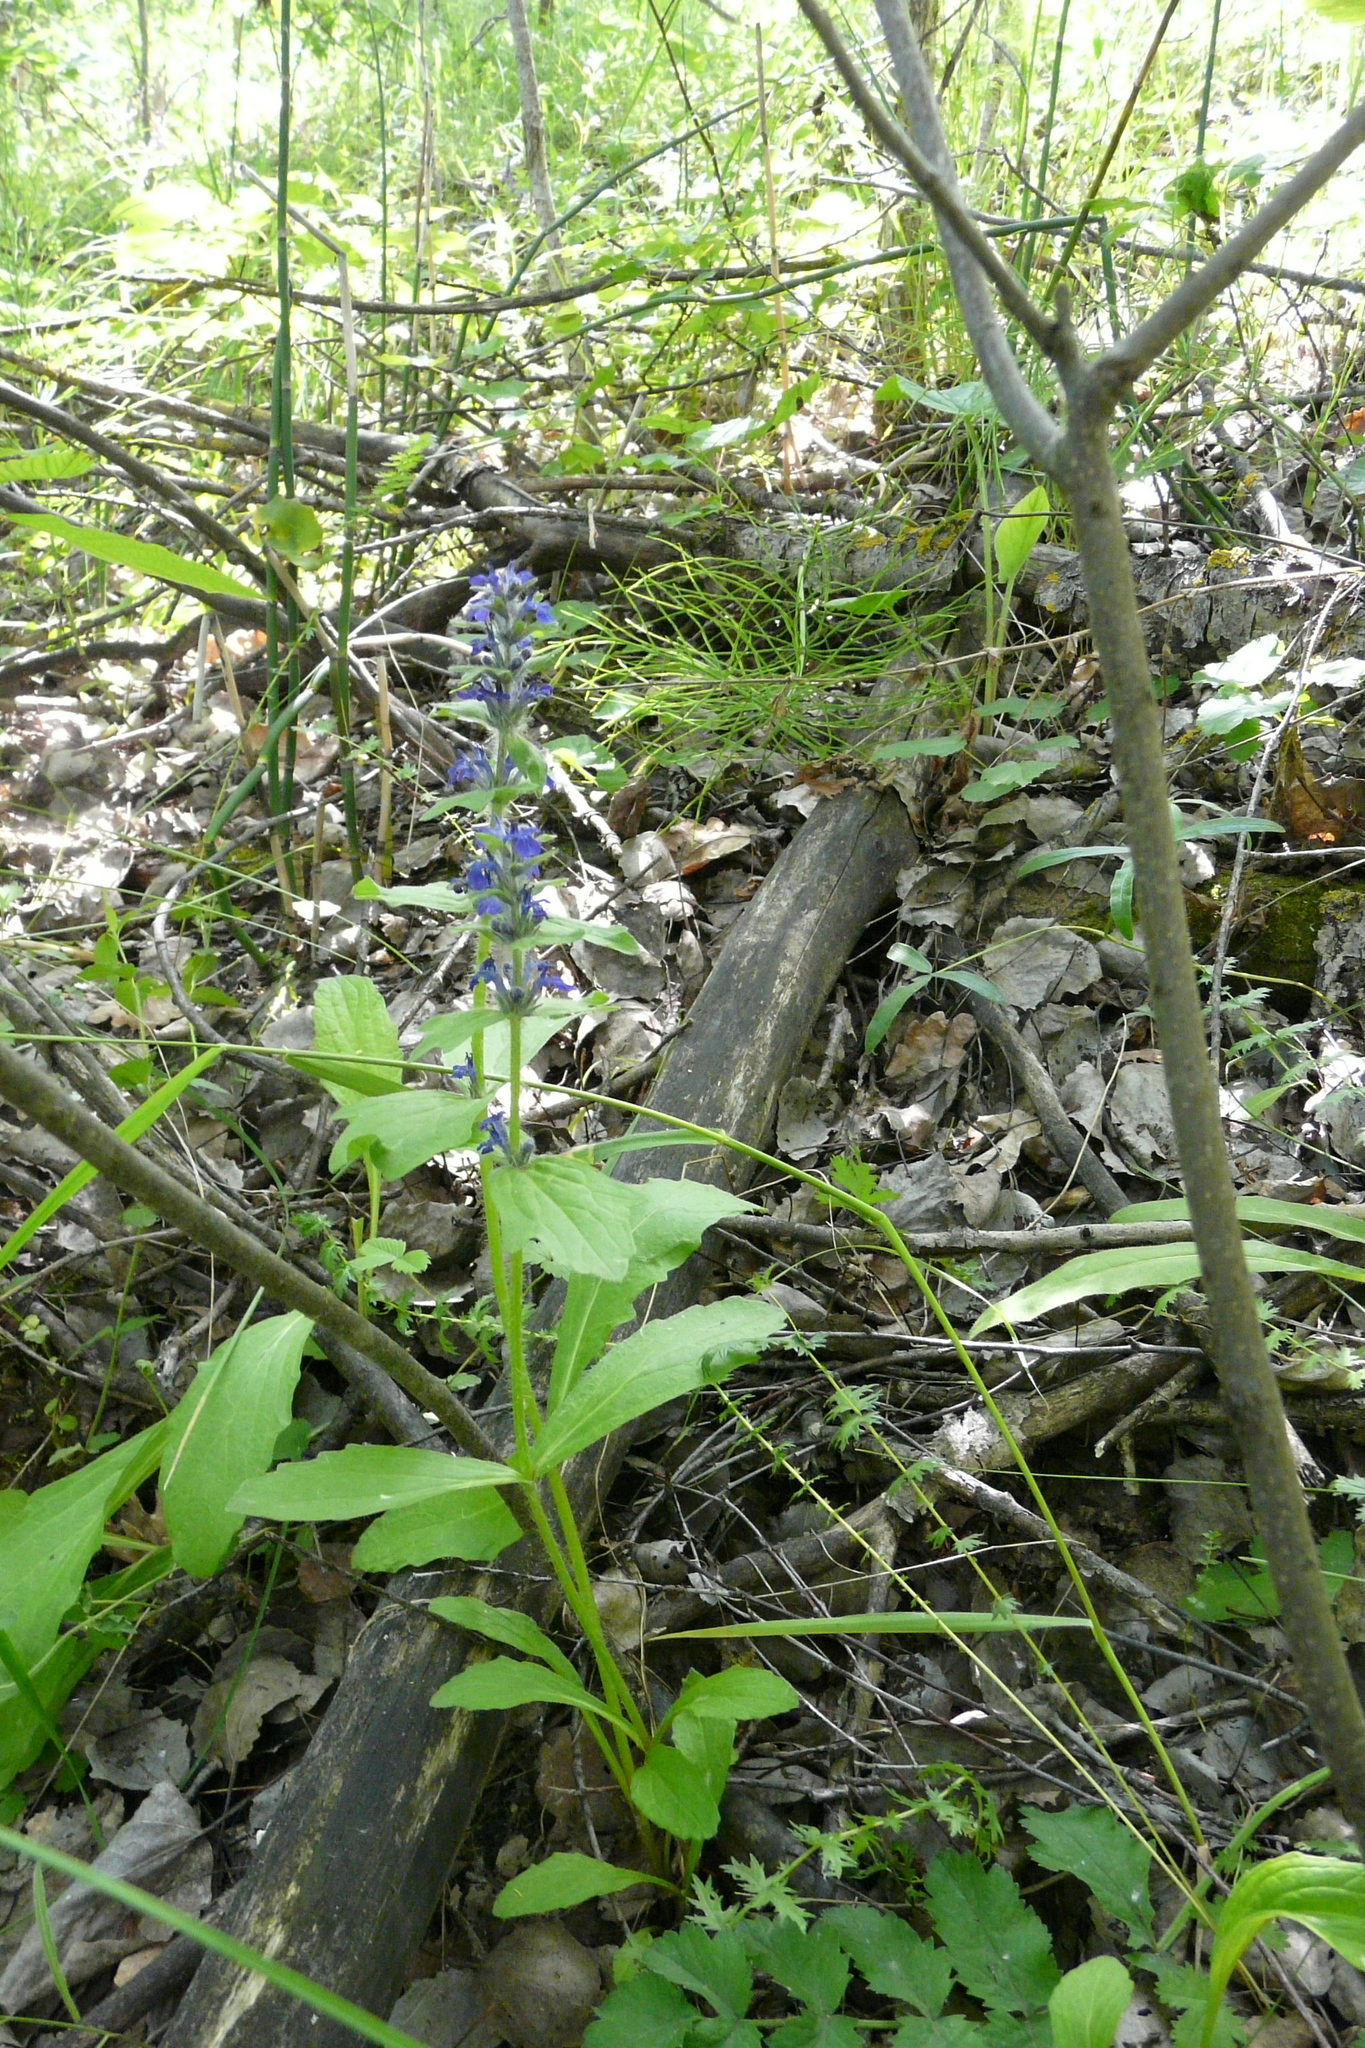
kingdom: Plantae
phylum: Tracheophyta
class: Magnoliopsida
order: Lamiales
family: Lamiaceae
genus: Ajuga
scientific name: Ajuga genevensis
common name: Blue bugle
